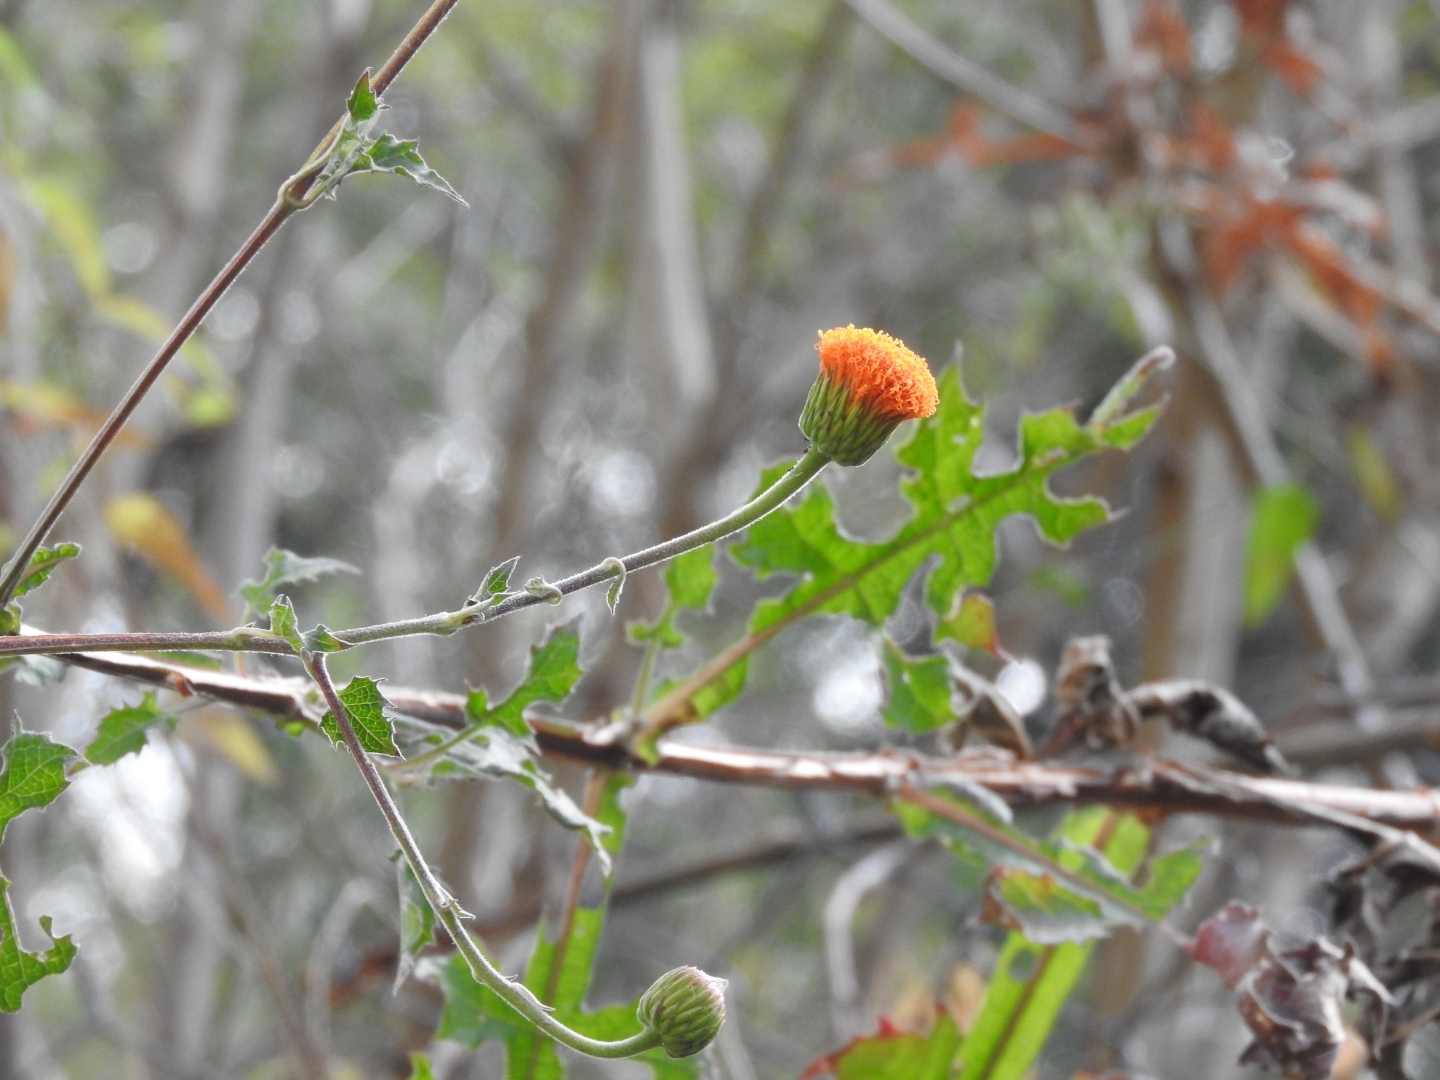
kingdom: Plantae
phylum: Tracheophyta
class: Magnoliopsida
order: Asterales
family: Asteraceae
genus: Verbesina
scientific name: Verbesina crocata
